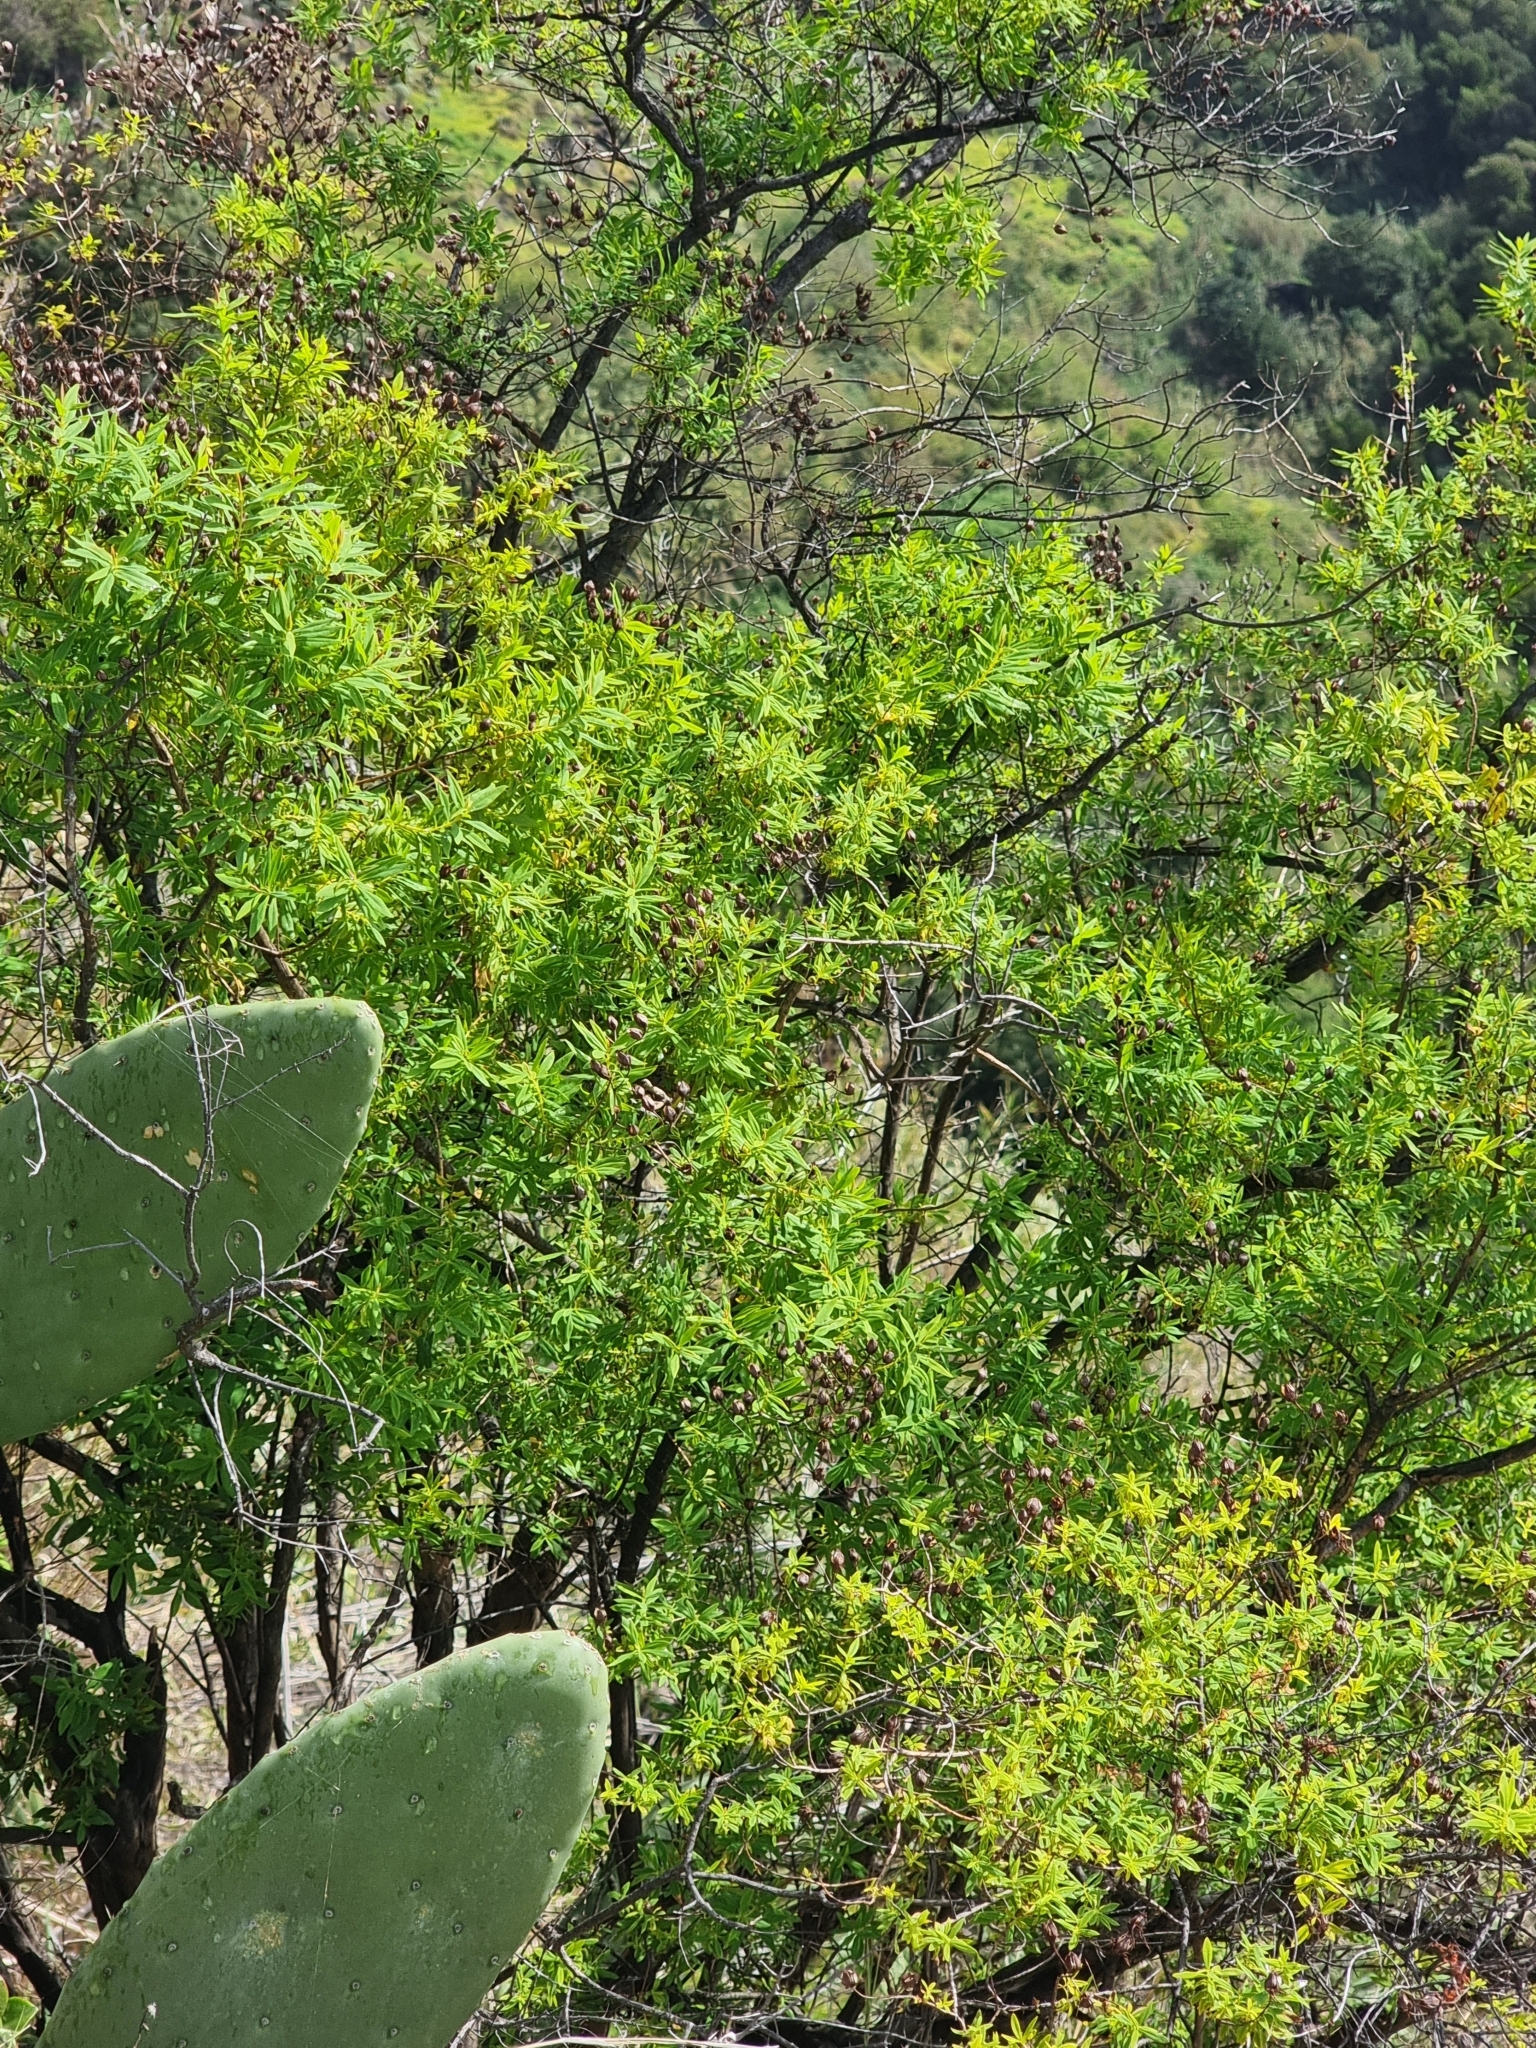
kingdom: Plantae
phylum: Tracheophyta
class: Magnoliopsida
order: Malpighiales
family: Hypericaceae
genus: Hypericum
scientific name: Hypericum canariense
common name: Canary island st. johnswort
